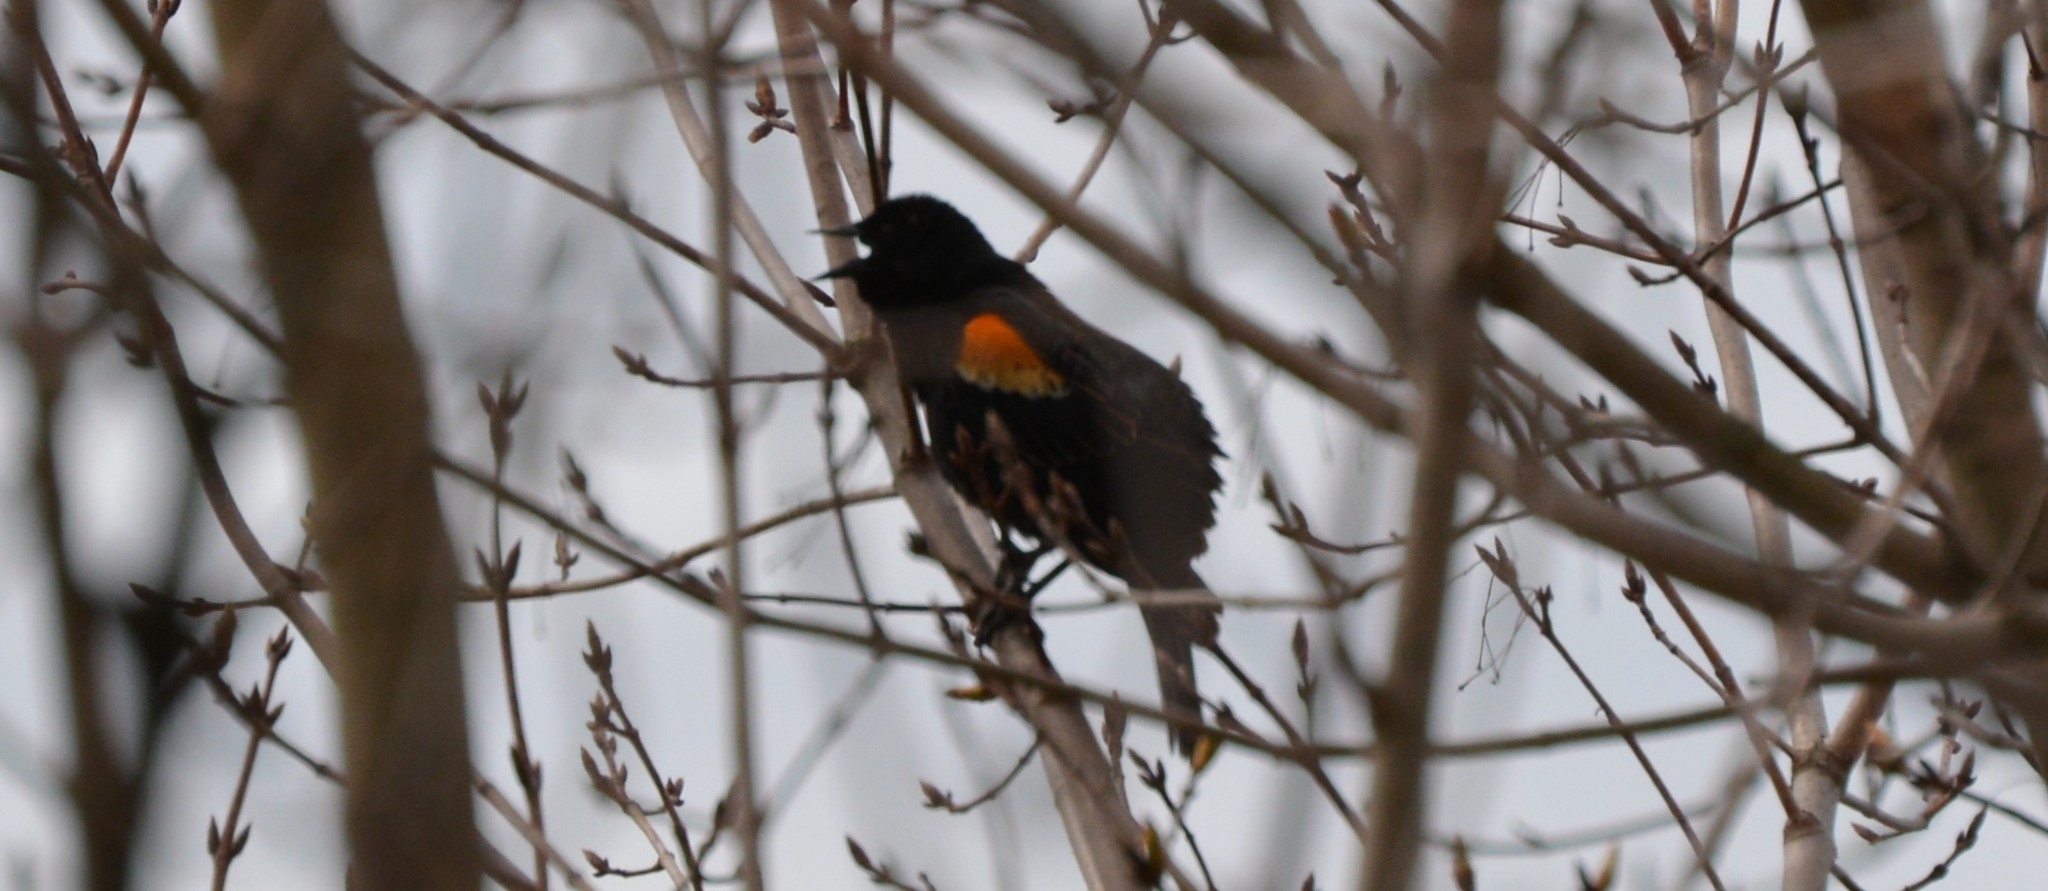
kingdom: Animalia
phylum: Chordata
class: Aves
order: Passeriformes
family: Icteridae
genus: Agelaius
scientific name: Agelaius phoeniceus
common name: Red-winged blackbird
